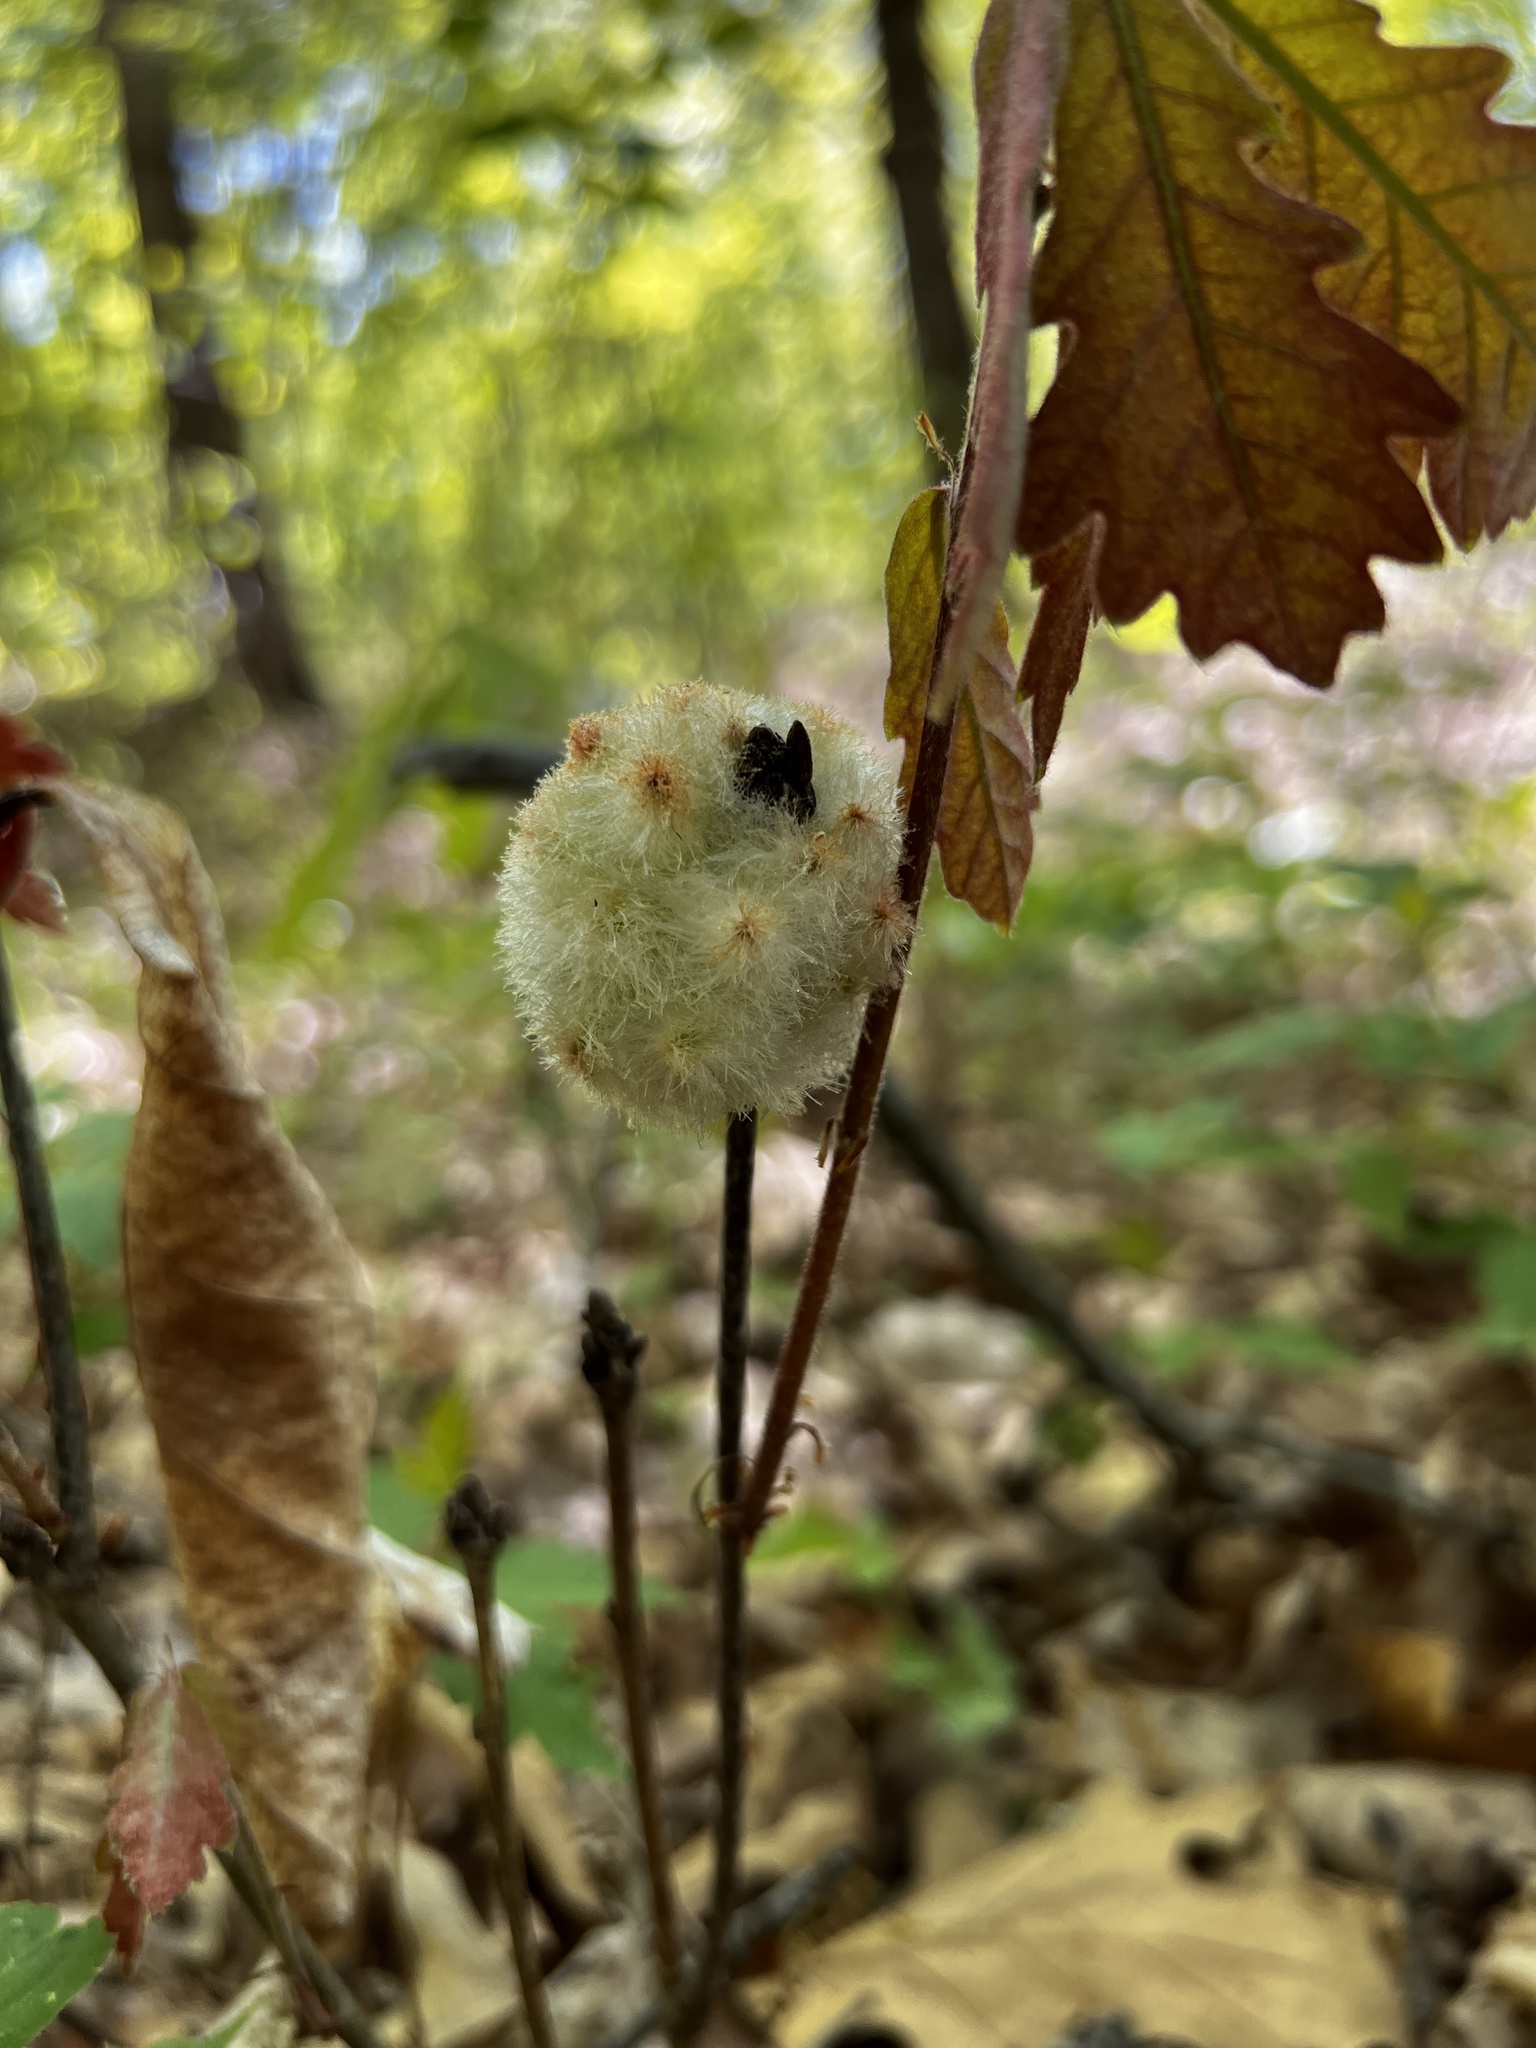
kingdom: Animalia
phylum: Arthropoda
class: Insecta
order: Hymenoptera
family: Cynipidae
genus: Callirhytis
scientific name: Callirhytis
